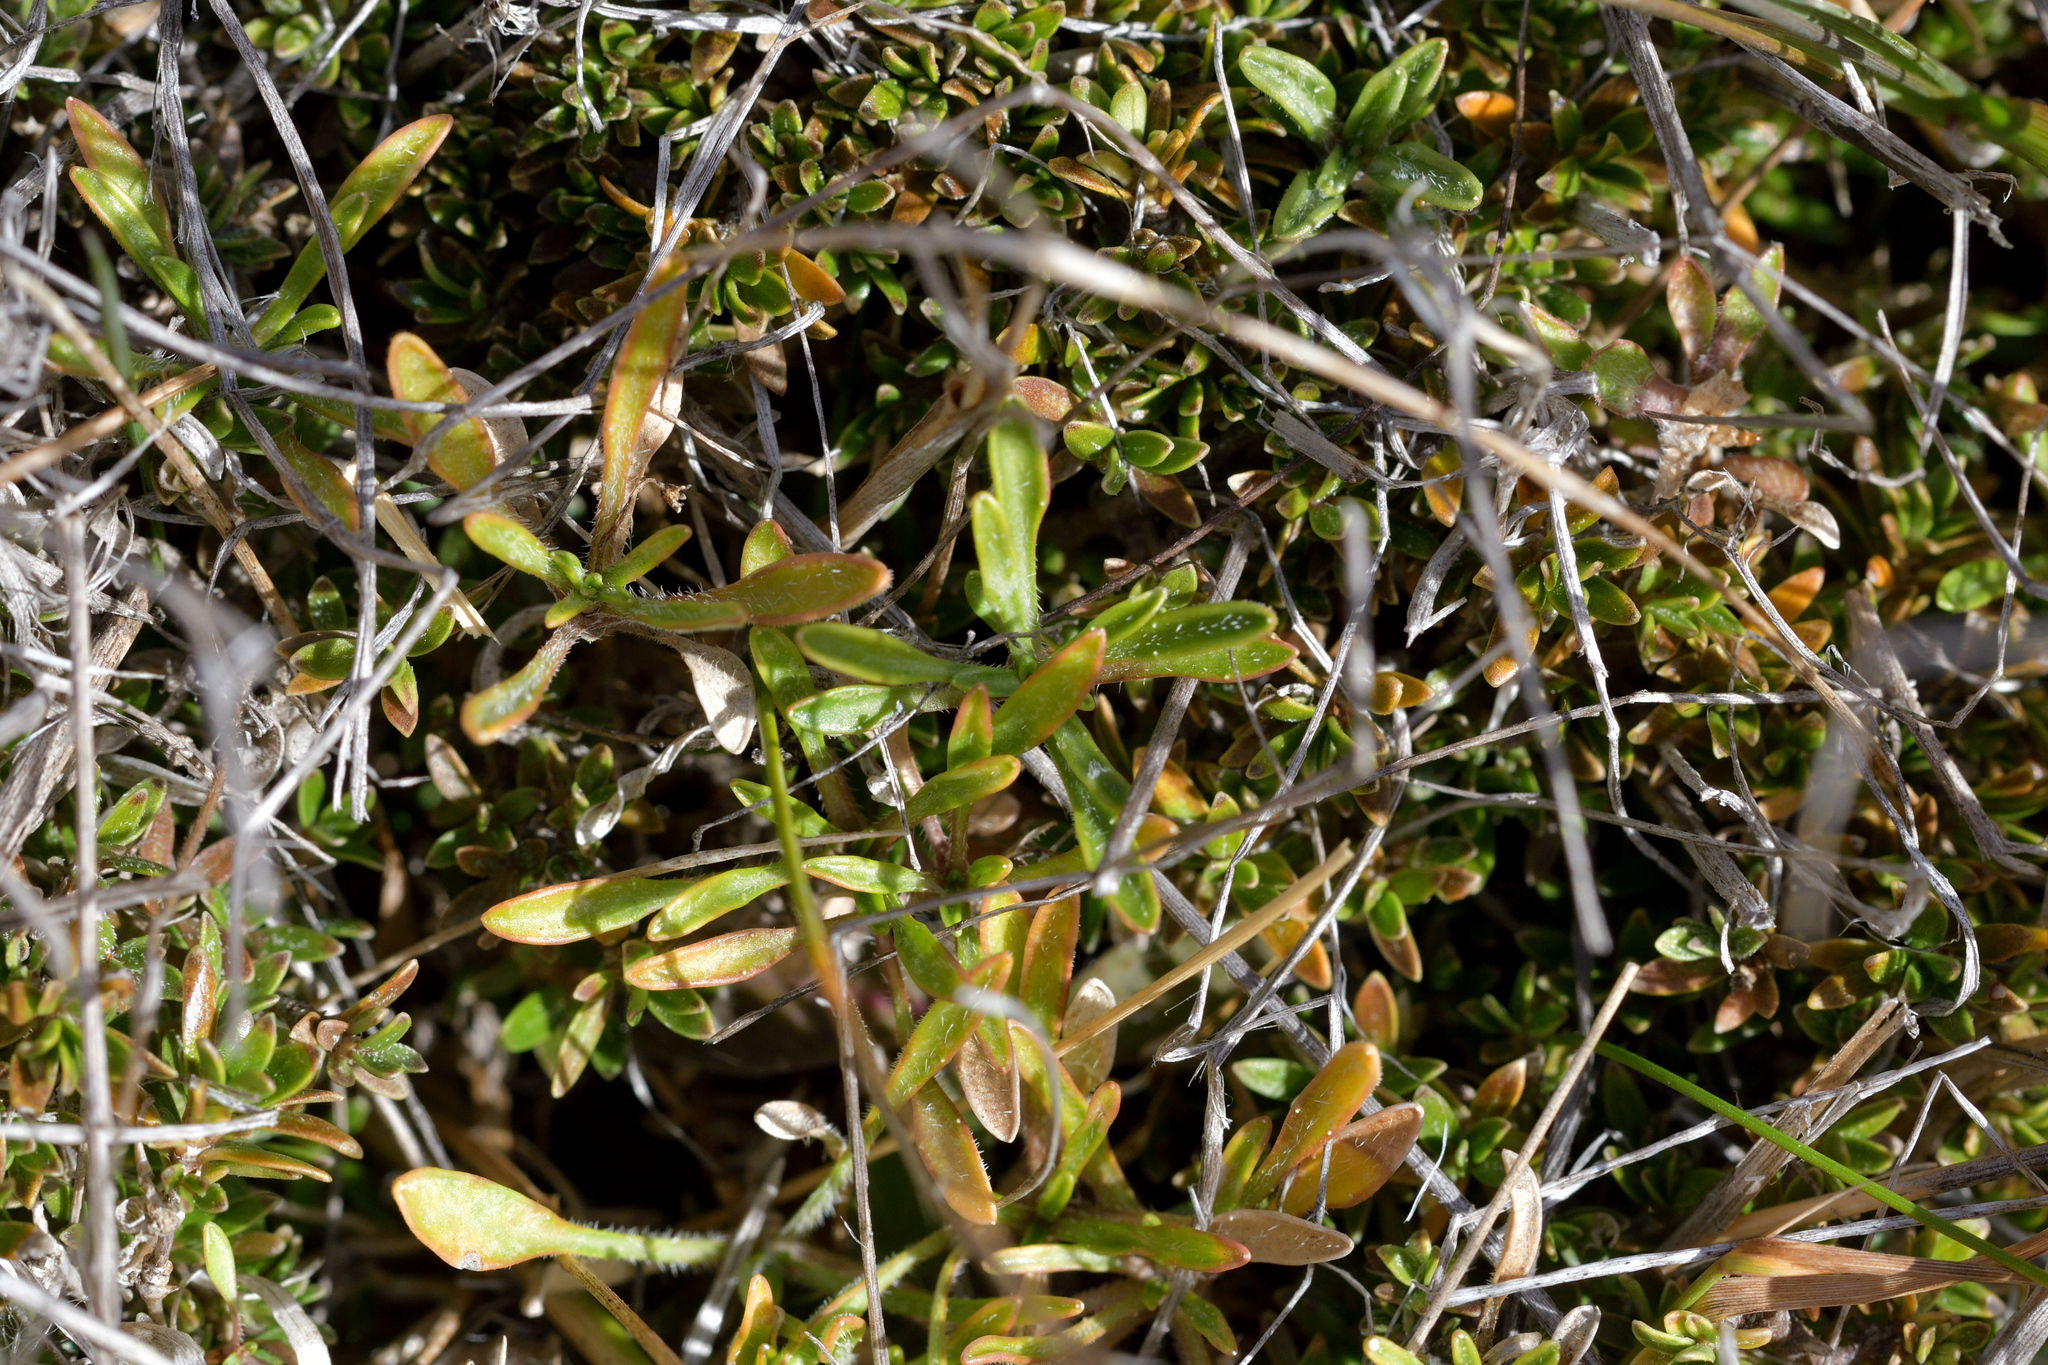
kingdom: Plantae
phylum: Tracheophyta
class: Magnoliopsida
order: Asterales
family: Campanulaceae
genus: Wahlenbergia
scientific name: Wahlenbergia albomarginata
